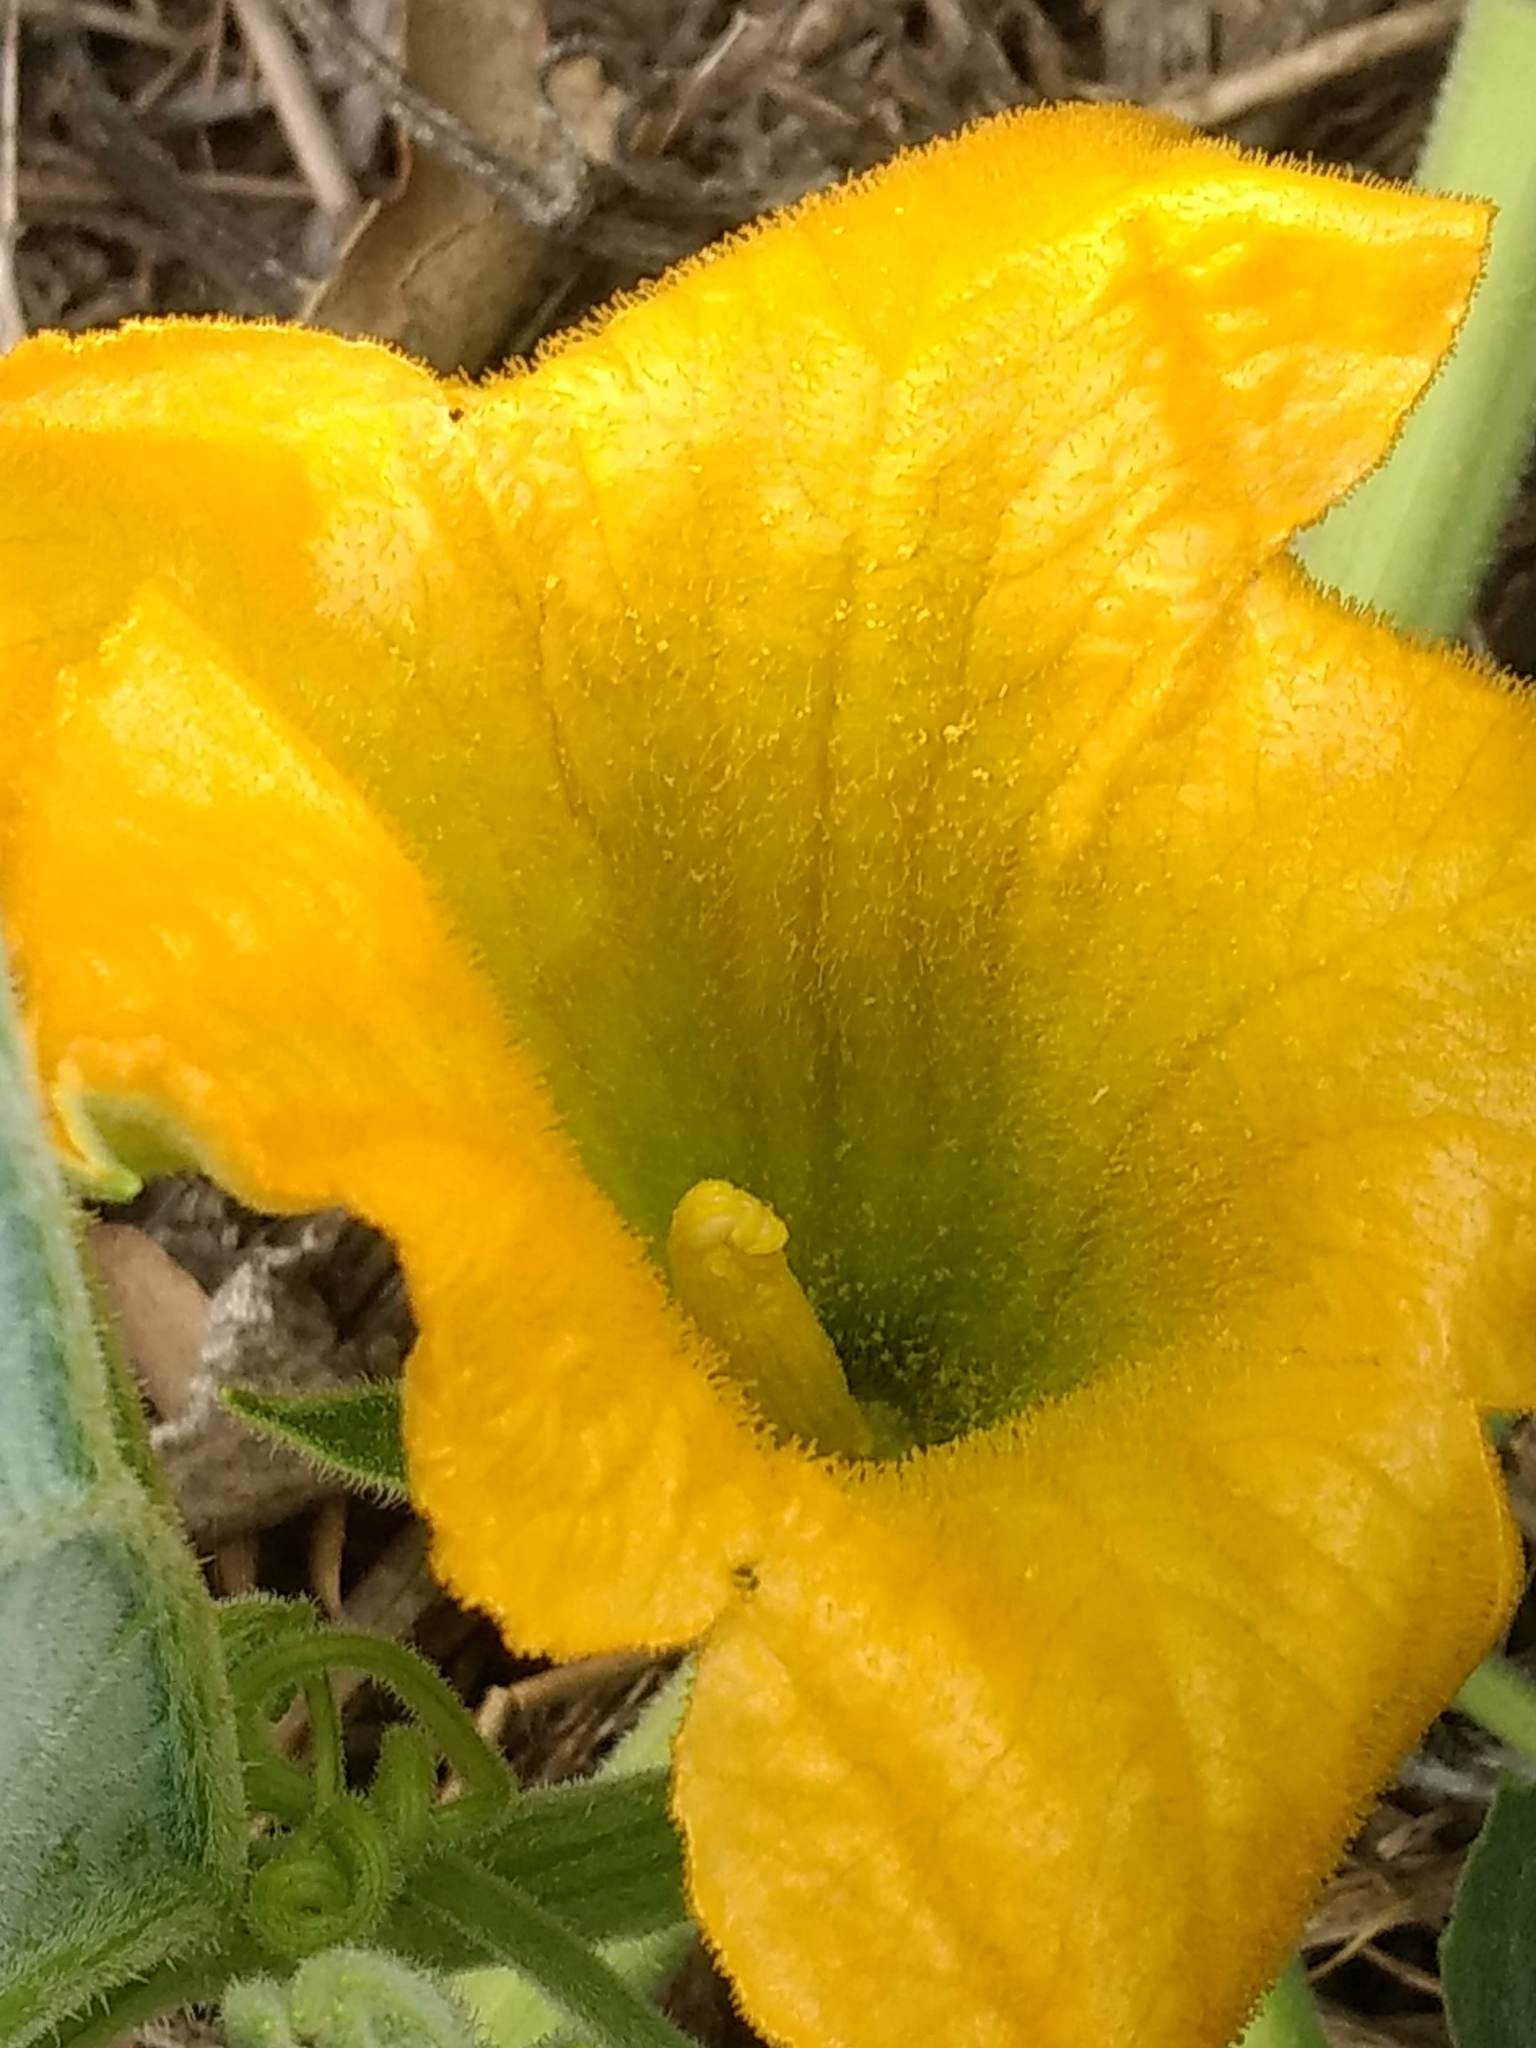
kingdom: Plantae
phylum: Tracheophyta
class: Magnoliopsida
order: Cucurbitales
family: Cucurbitaceae
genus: Cucurbita
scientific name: Cucurbita foetidissima
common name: Buffalo gourd
